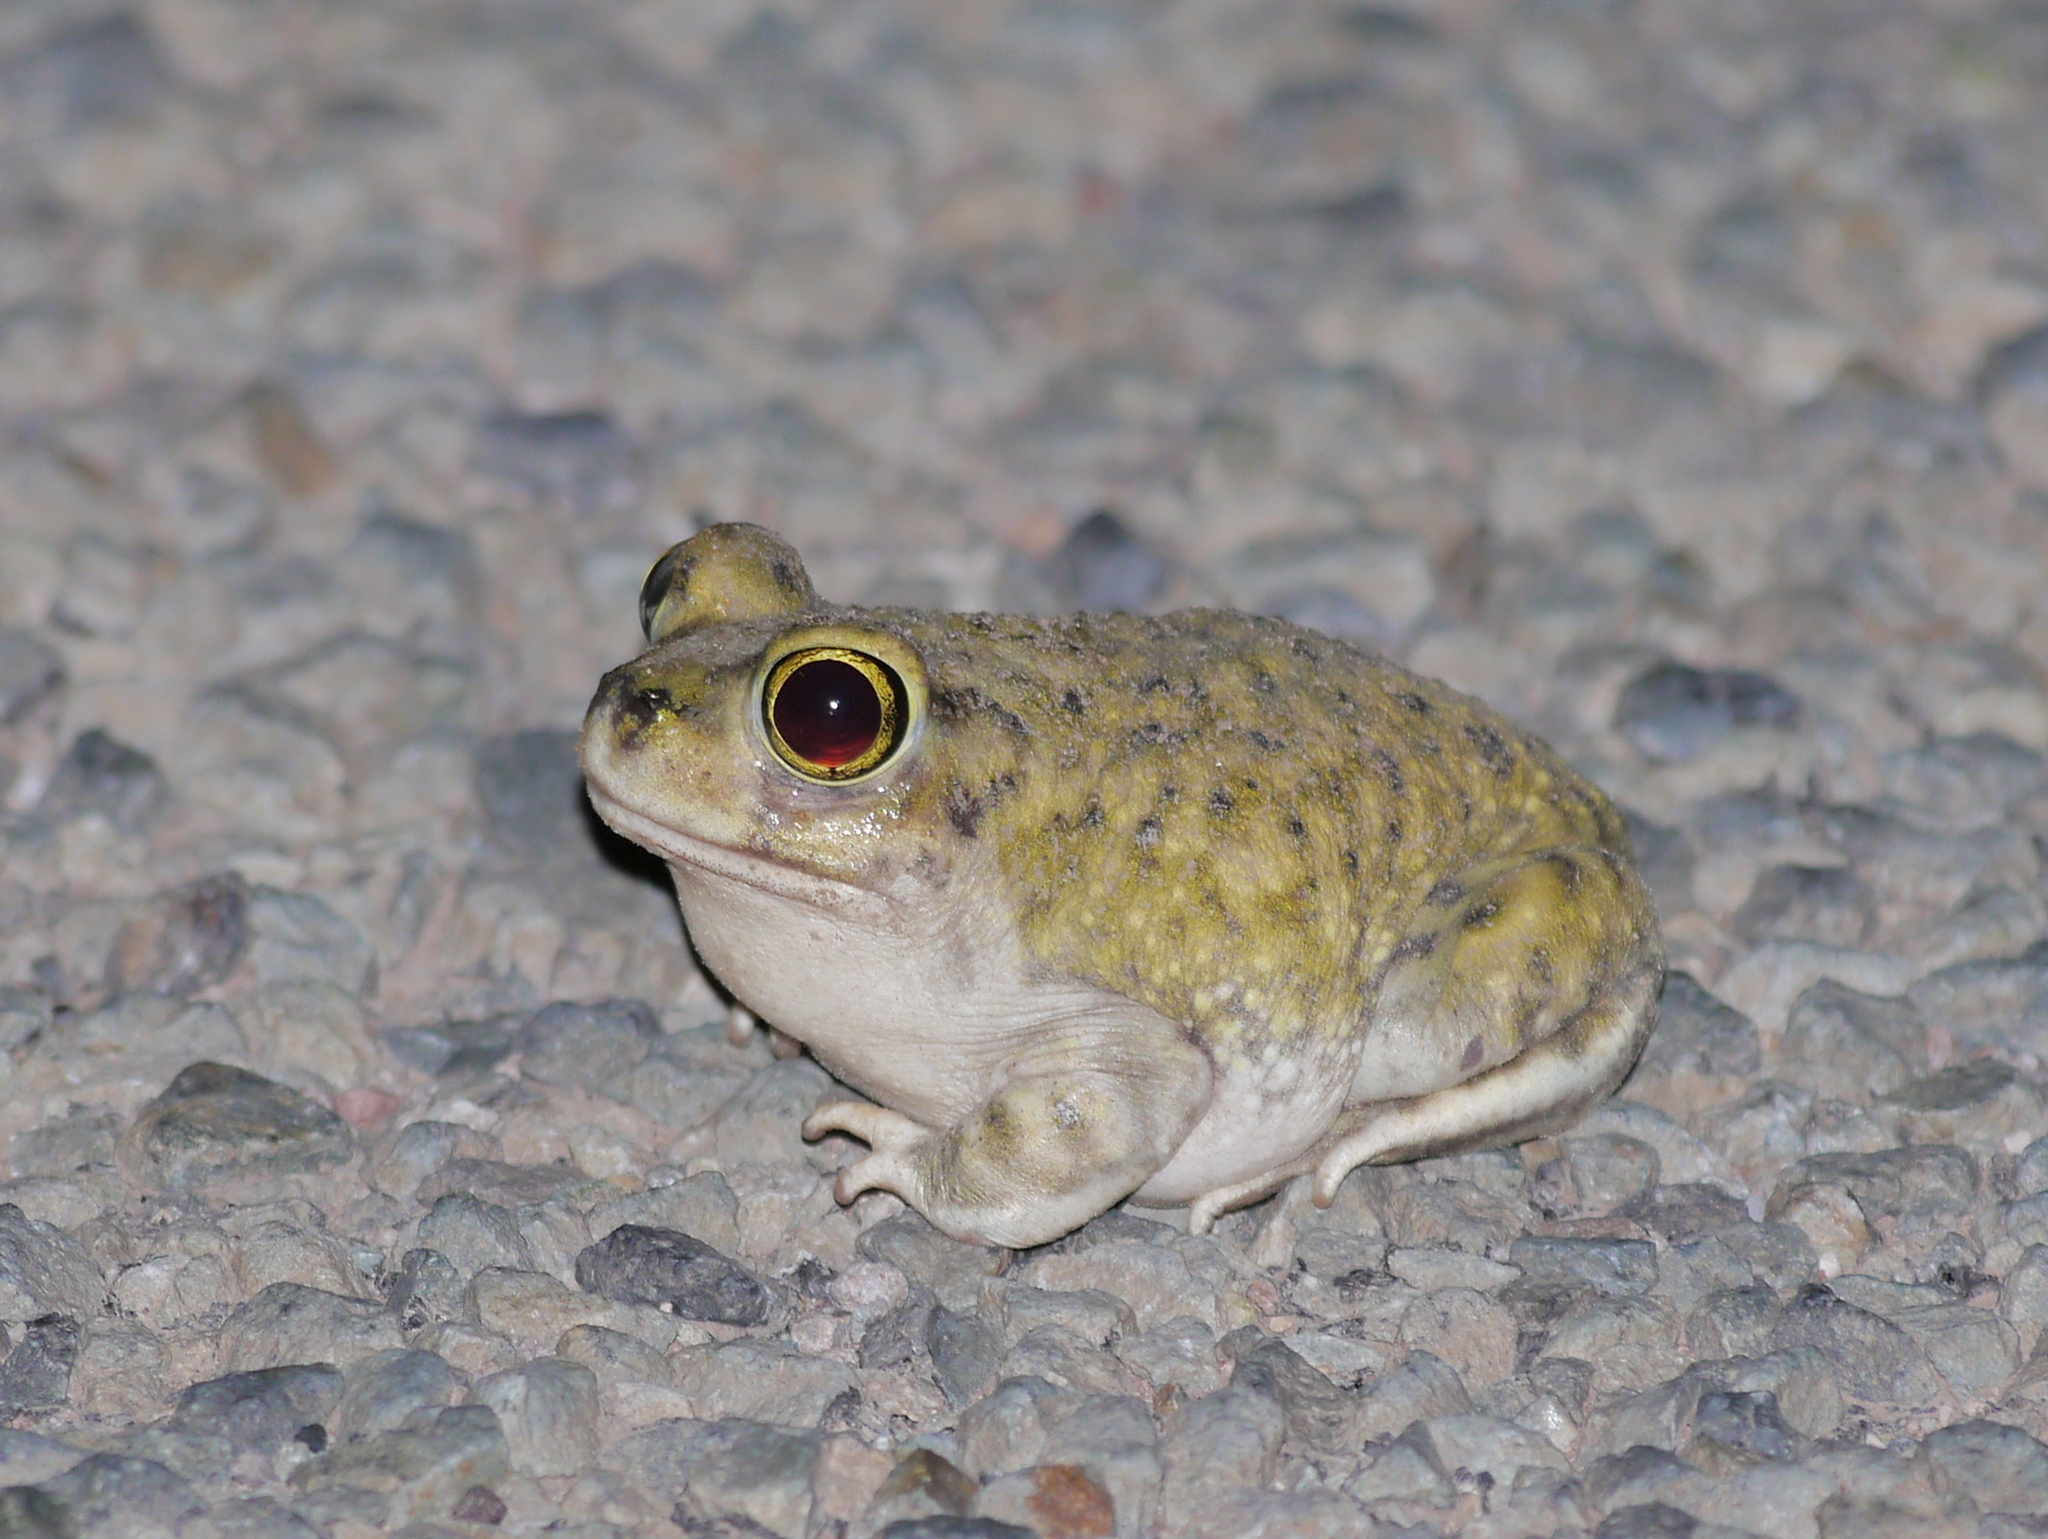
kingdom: Animalia
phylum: Chordata
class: Amphibia
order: Anura
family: Scaphiopodidae
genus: Scaphiopus
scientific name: Scaphiopus couchii
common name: Couch's spadefoot toad
